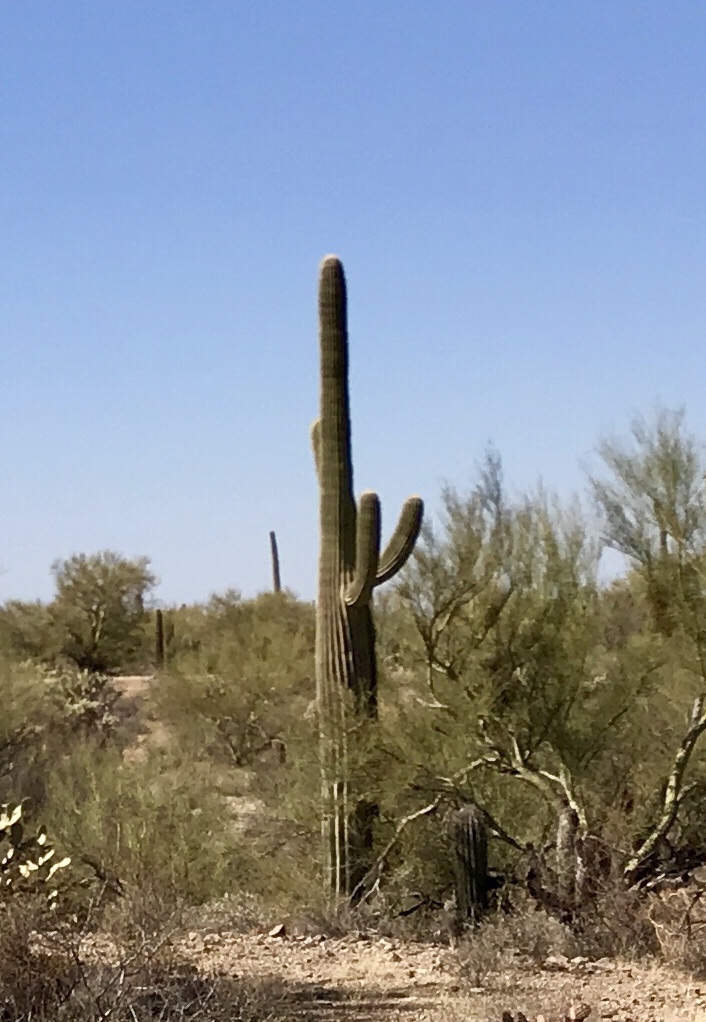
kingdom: Plantae
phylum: Tracheophyta
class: Magnoliopsida
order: Caryophyllales
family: Cactaceae
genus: Carnegiea
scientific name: Carnegiea gigantea
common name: Saguaro
